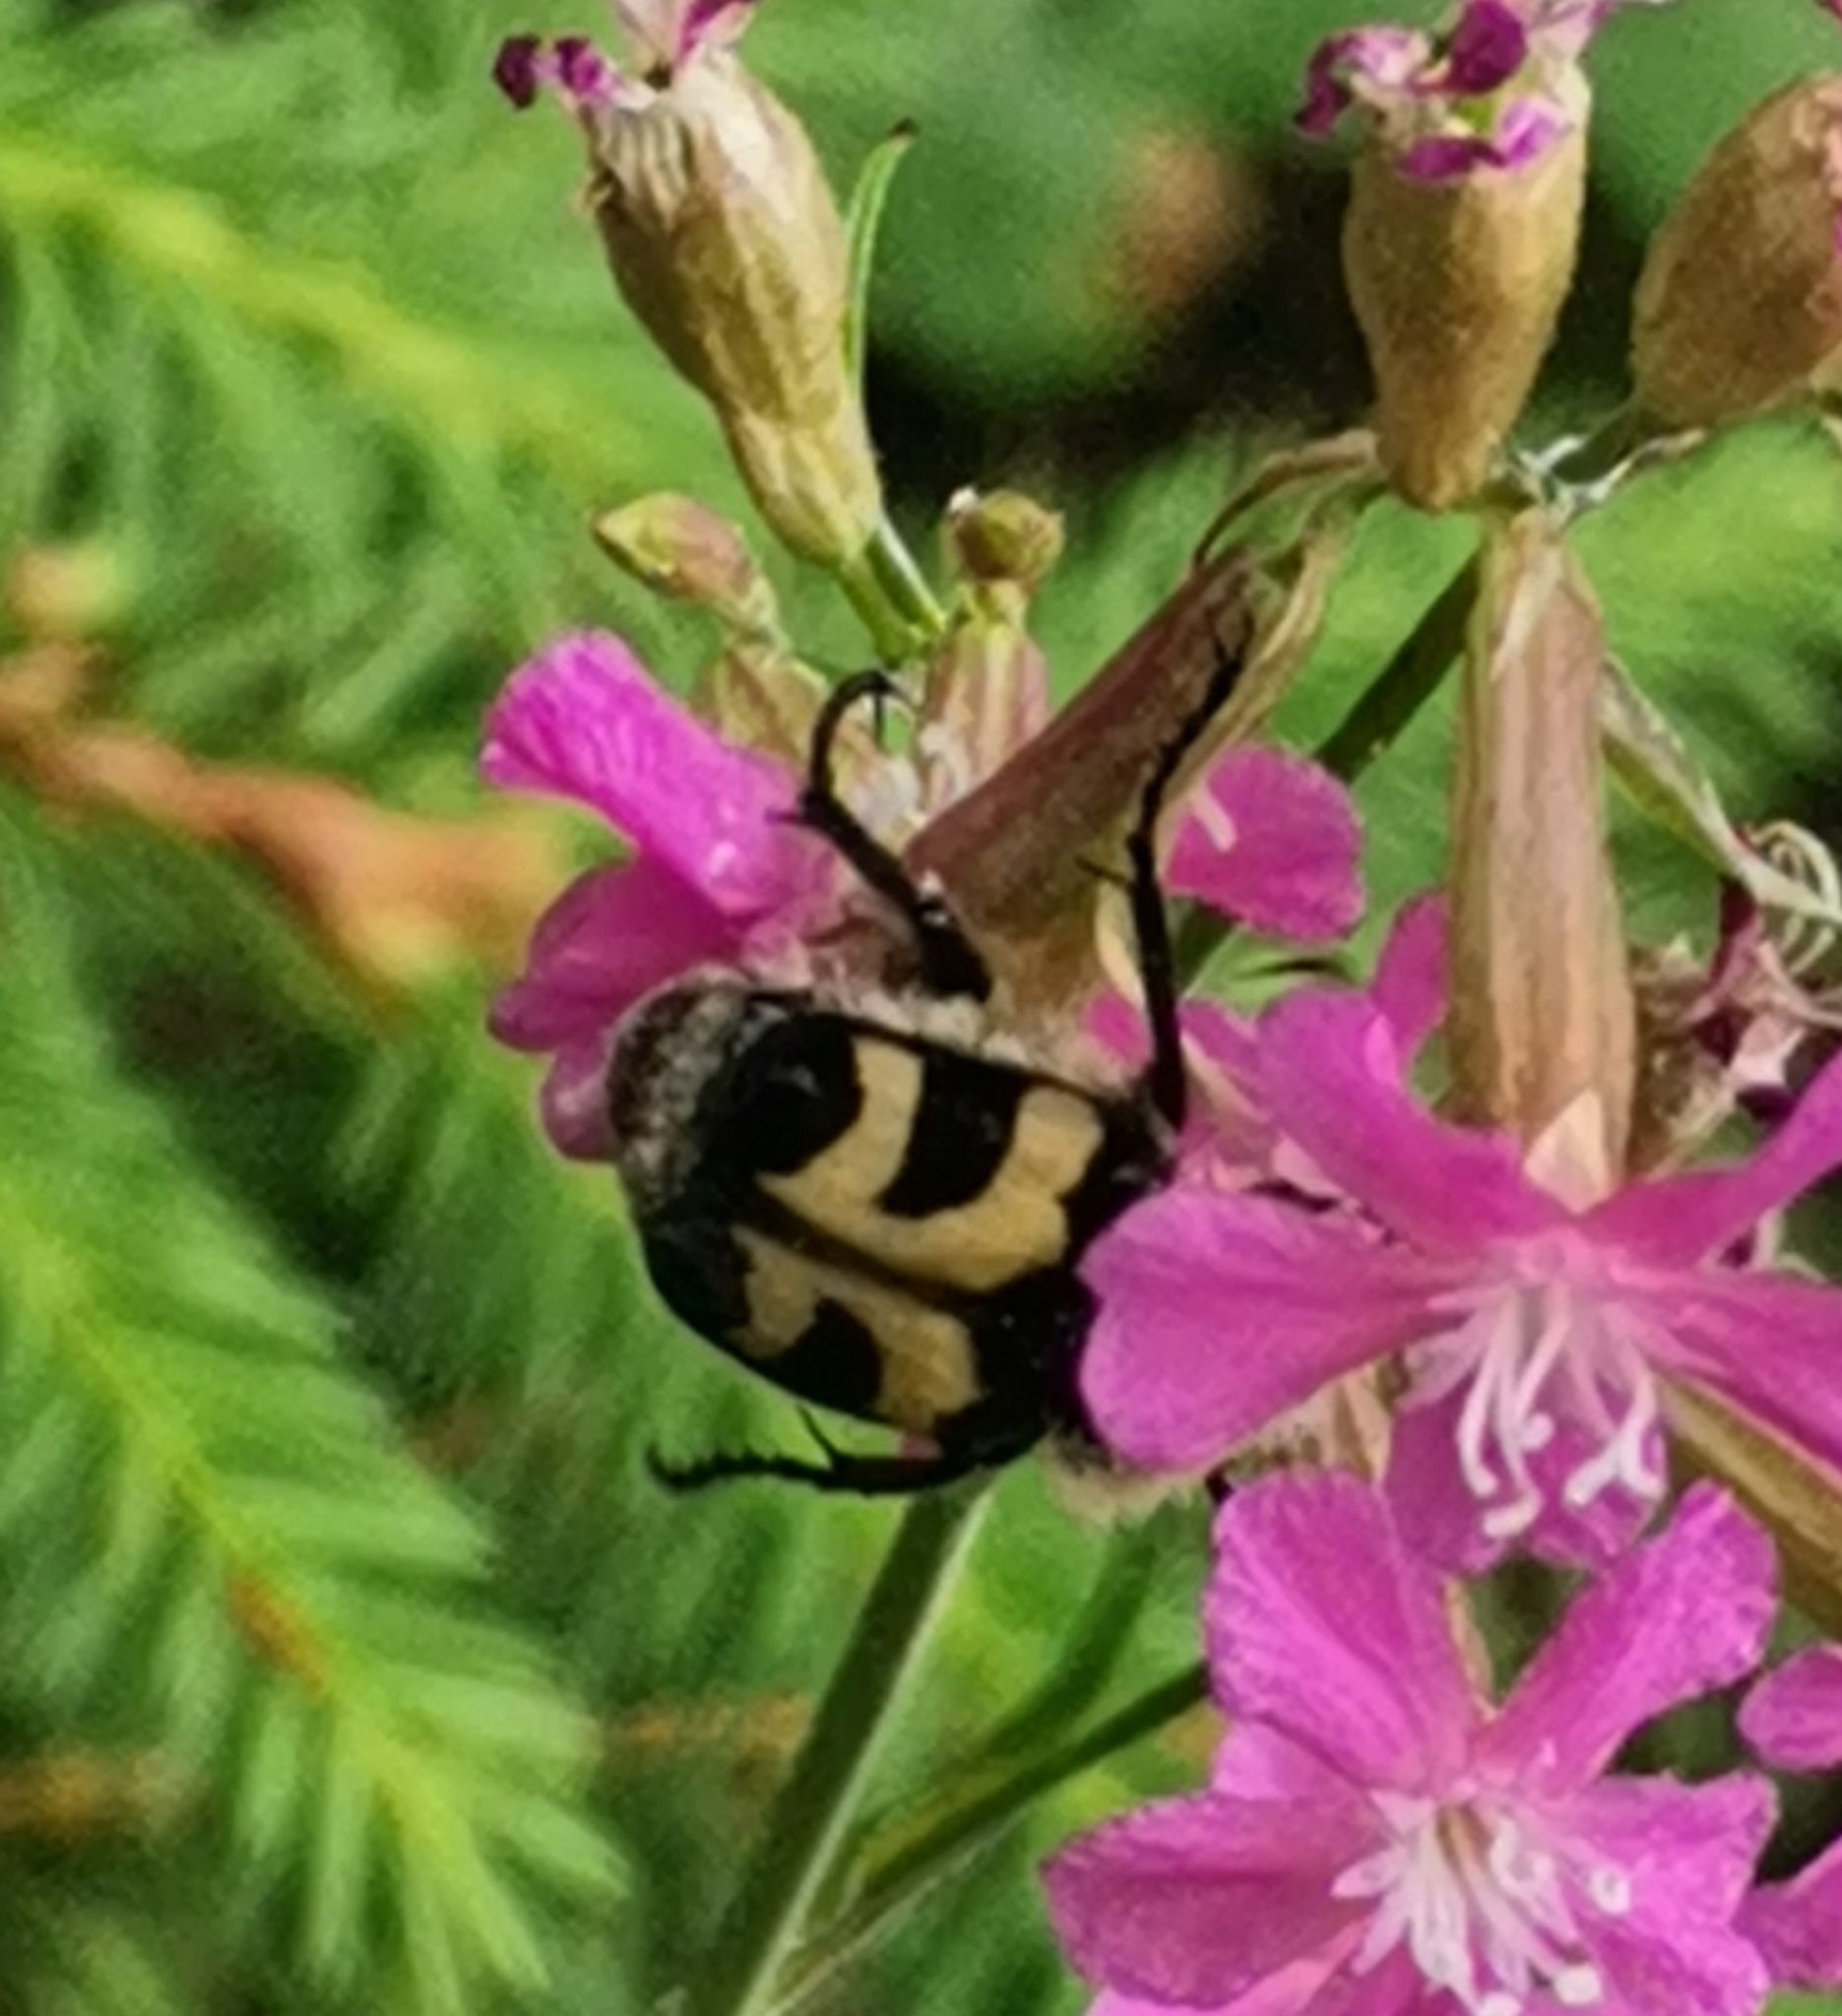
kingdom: Animalia
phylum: Arthropoda
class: Insecta
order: Coleoptera
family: Scarabaeidae
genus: Trichius
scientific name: Trichius fasciatus
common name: Bee beetle
